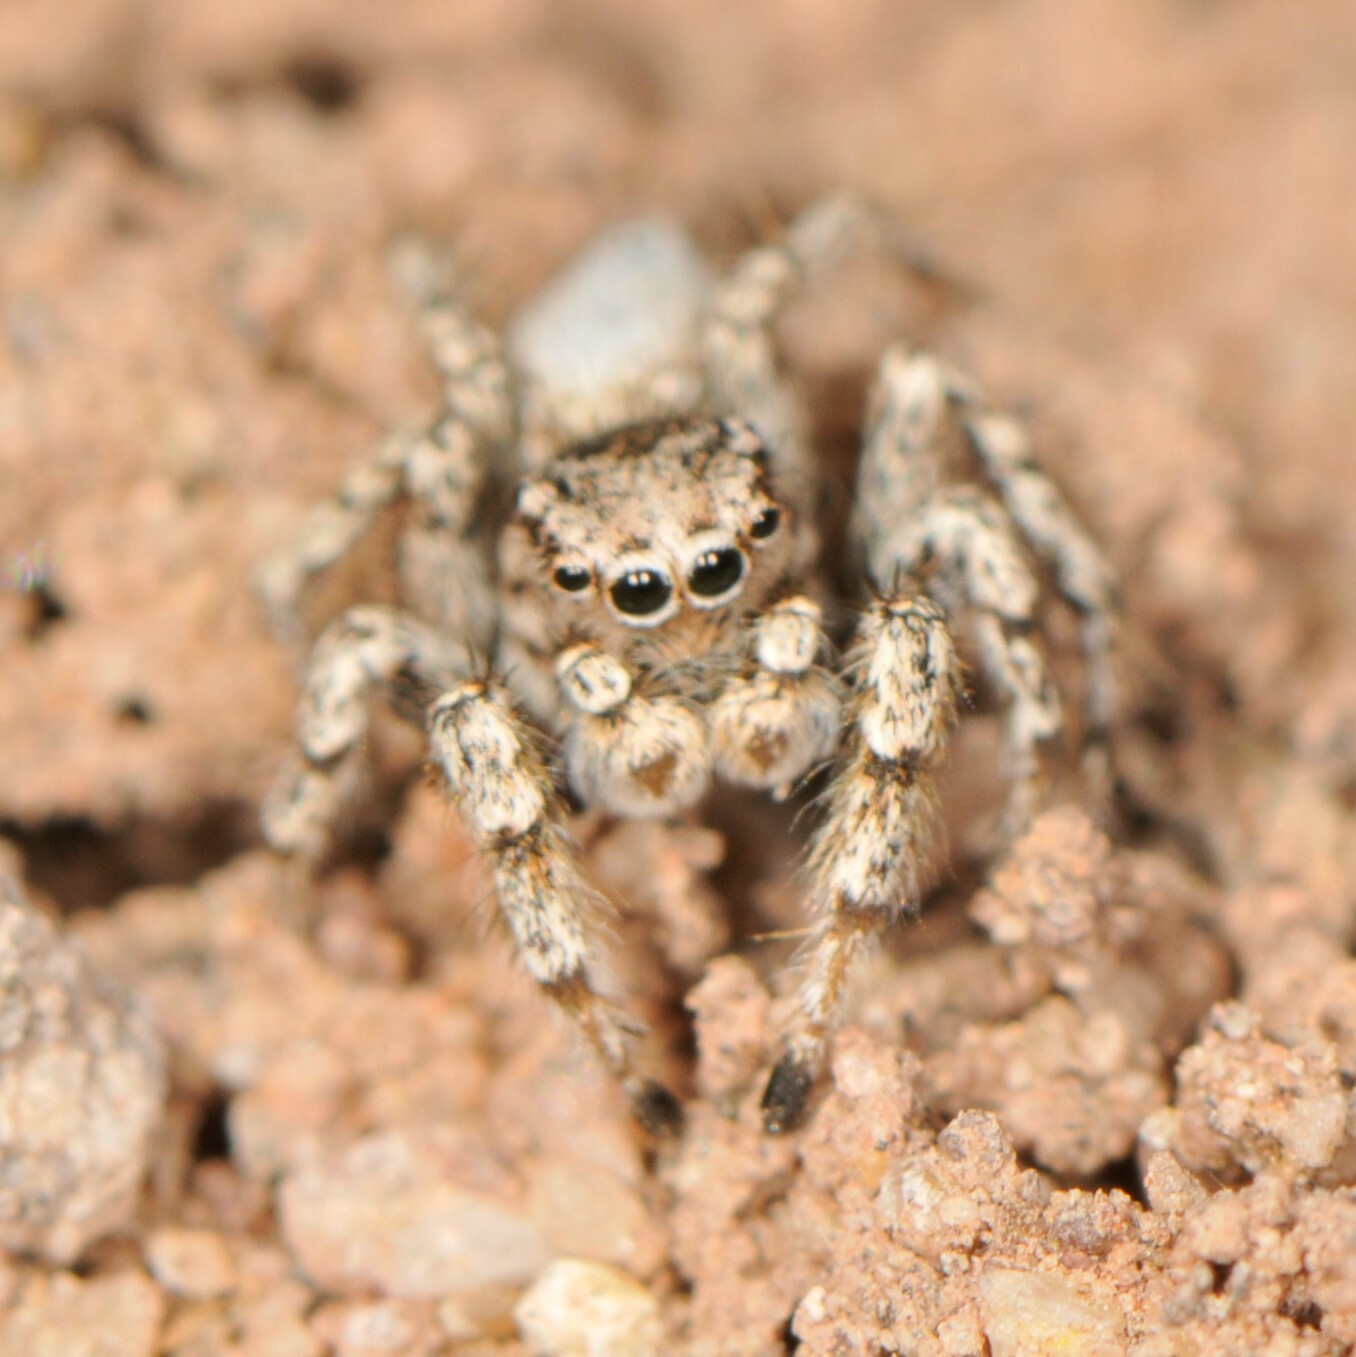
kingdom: Animalia
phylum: Arthropoda
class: Arachnida
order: Araneae
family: Salticidae
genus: Habronattus
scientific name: Habronattus amicus
